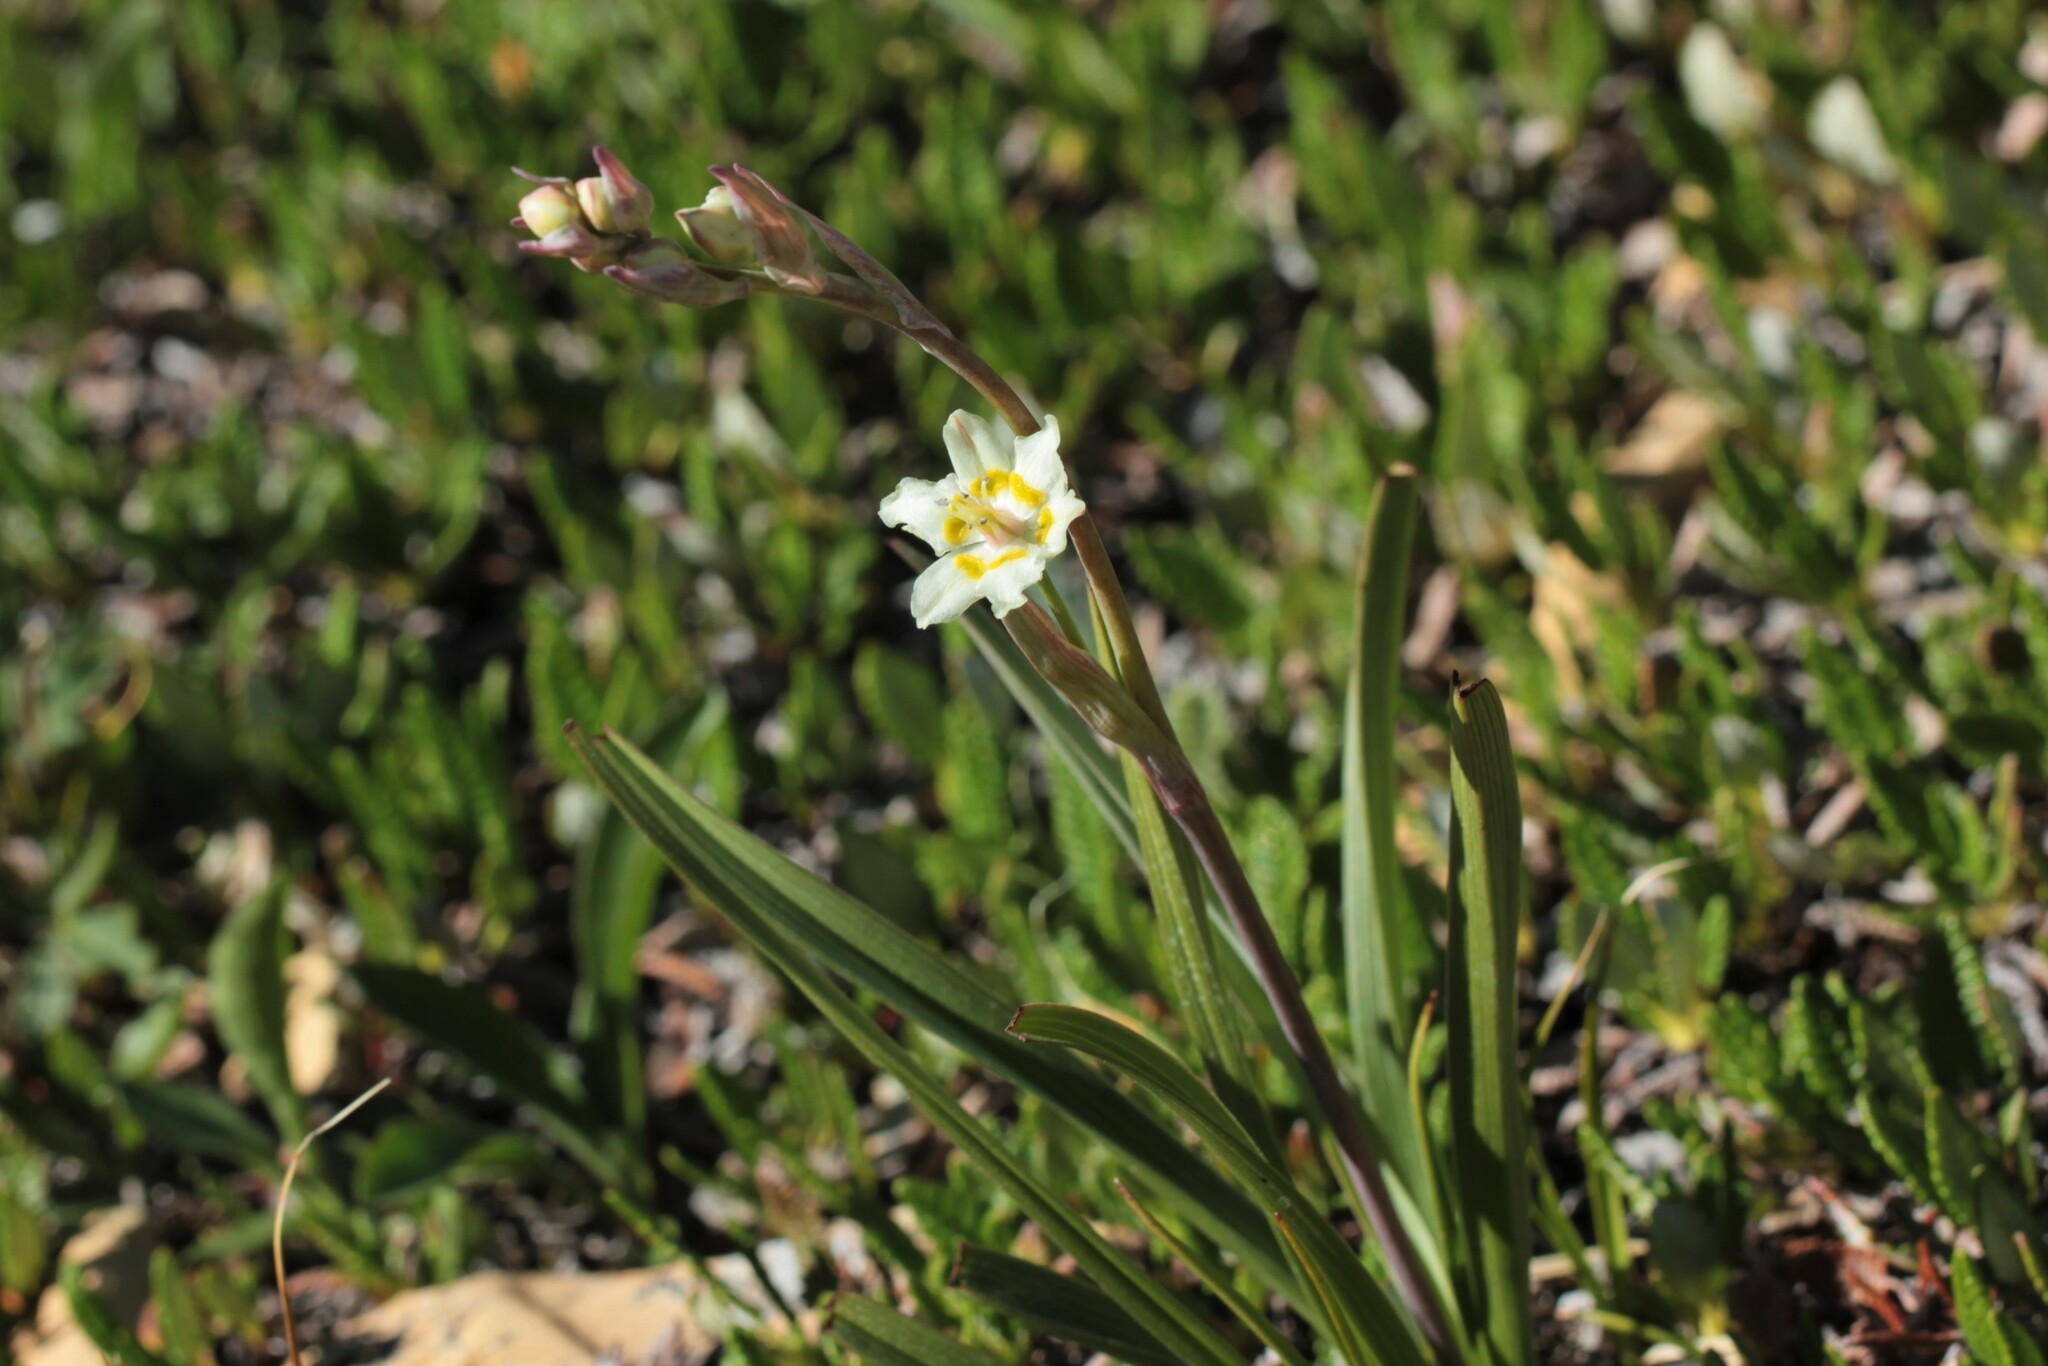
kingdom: Plantae
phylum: Tracheophyta
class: Liliopsida
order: Liliales
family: Melanthiaceae
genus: Anticlea
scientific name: Anticlea elegans
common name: Mountain death camas
